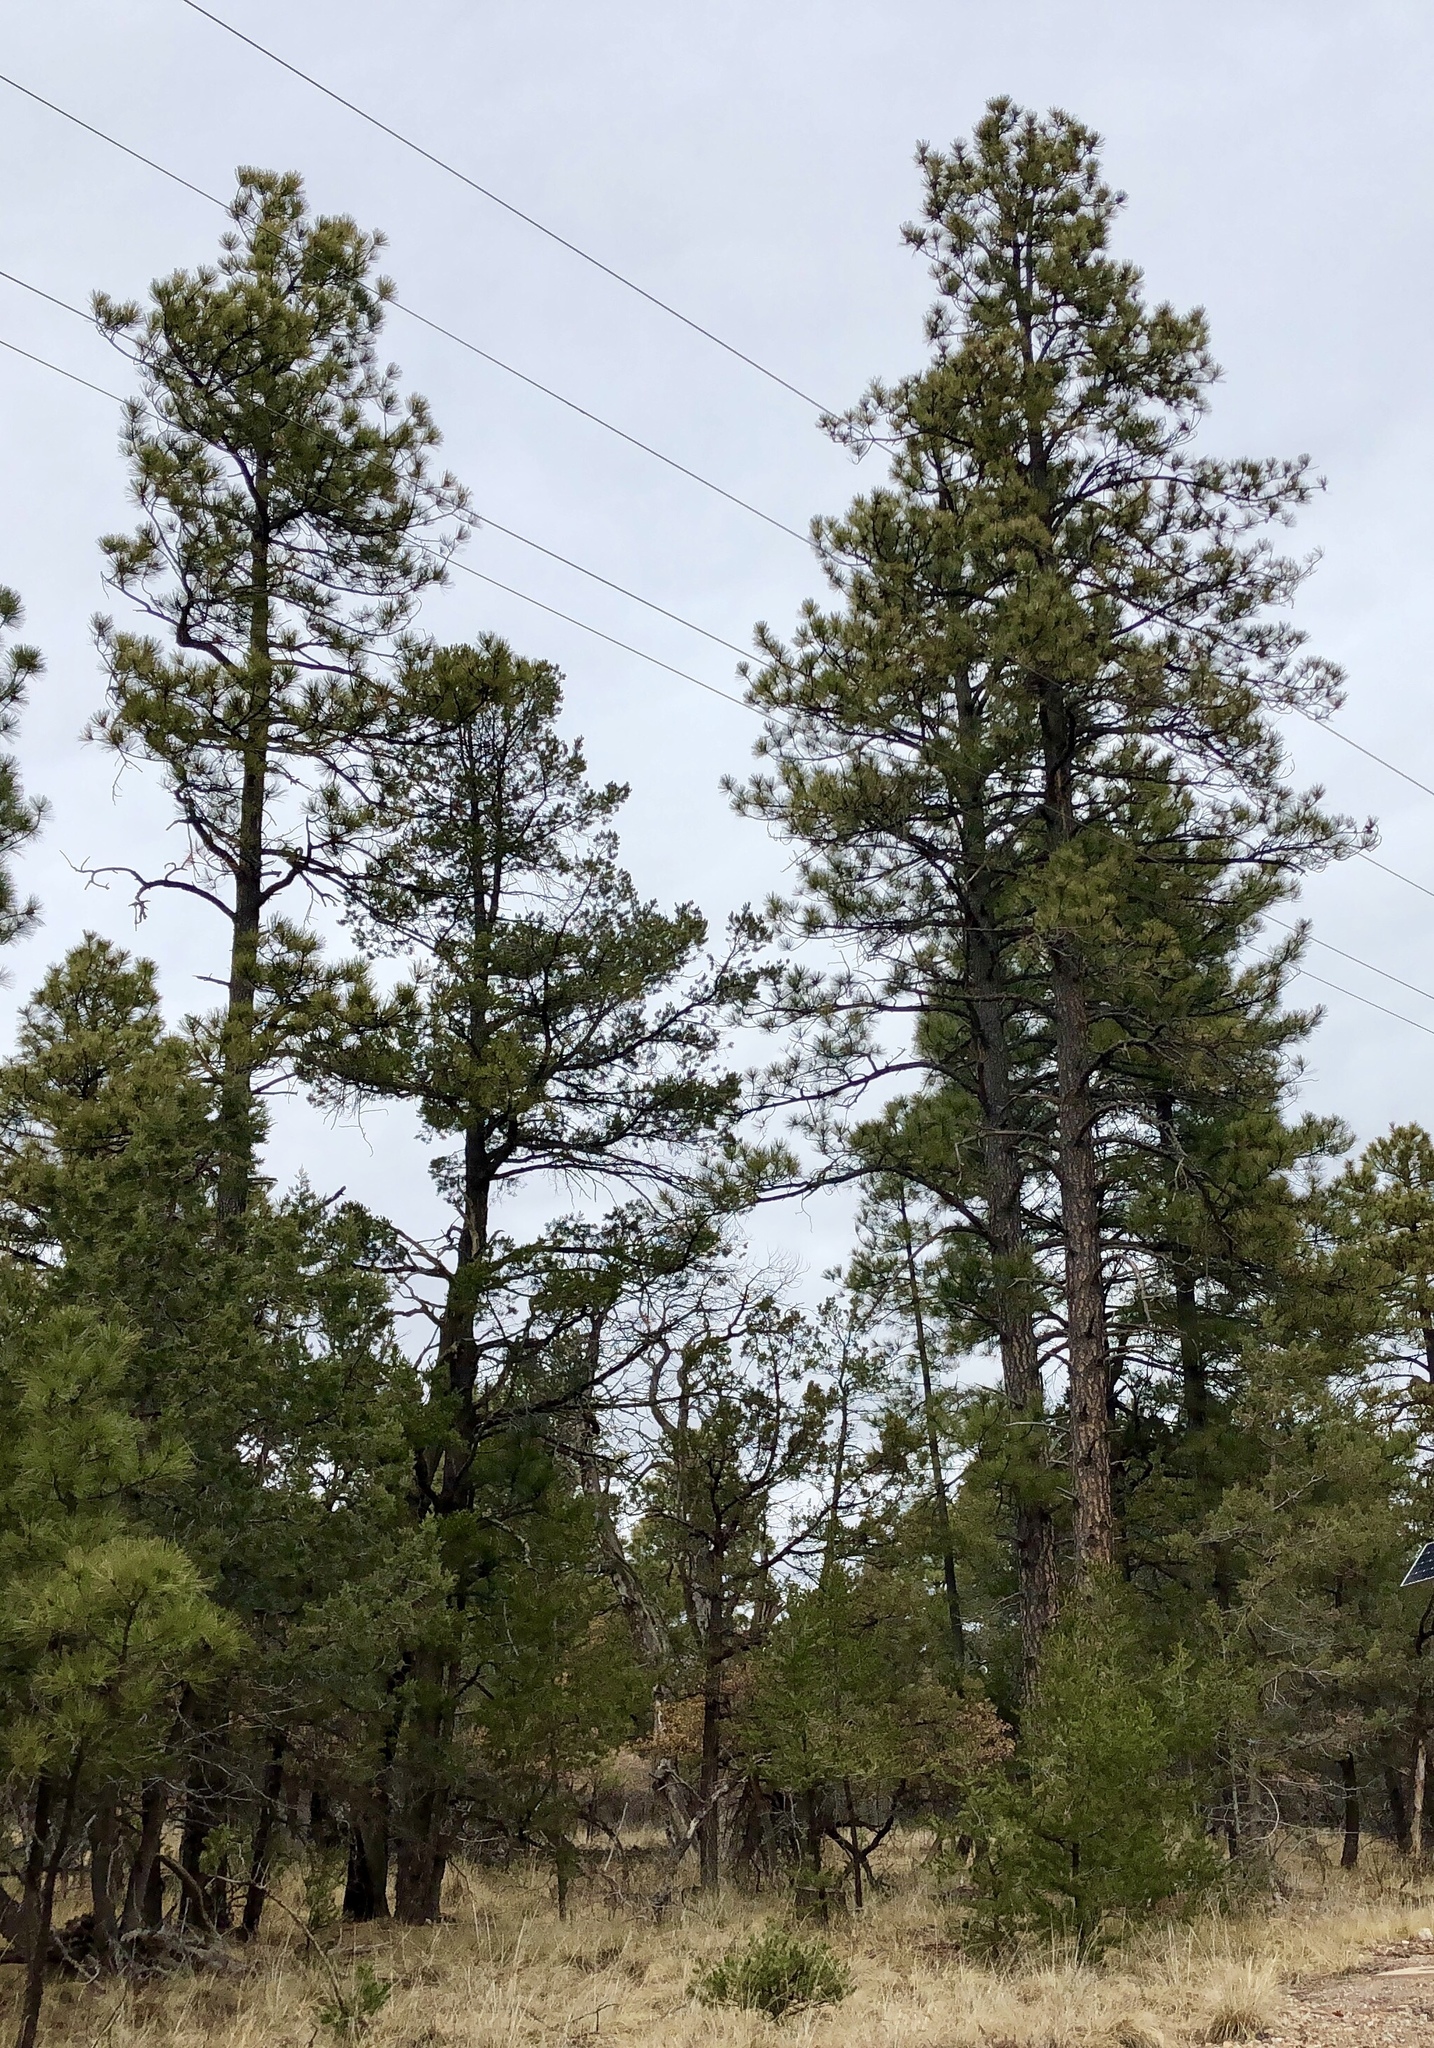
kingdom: Plantae
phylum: Tracheophyta
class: Pinopsida
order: Pinales
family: Pinaceae
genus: Pinus
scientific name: Pinus ponderosa
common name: Western yellow-pine
